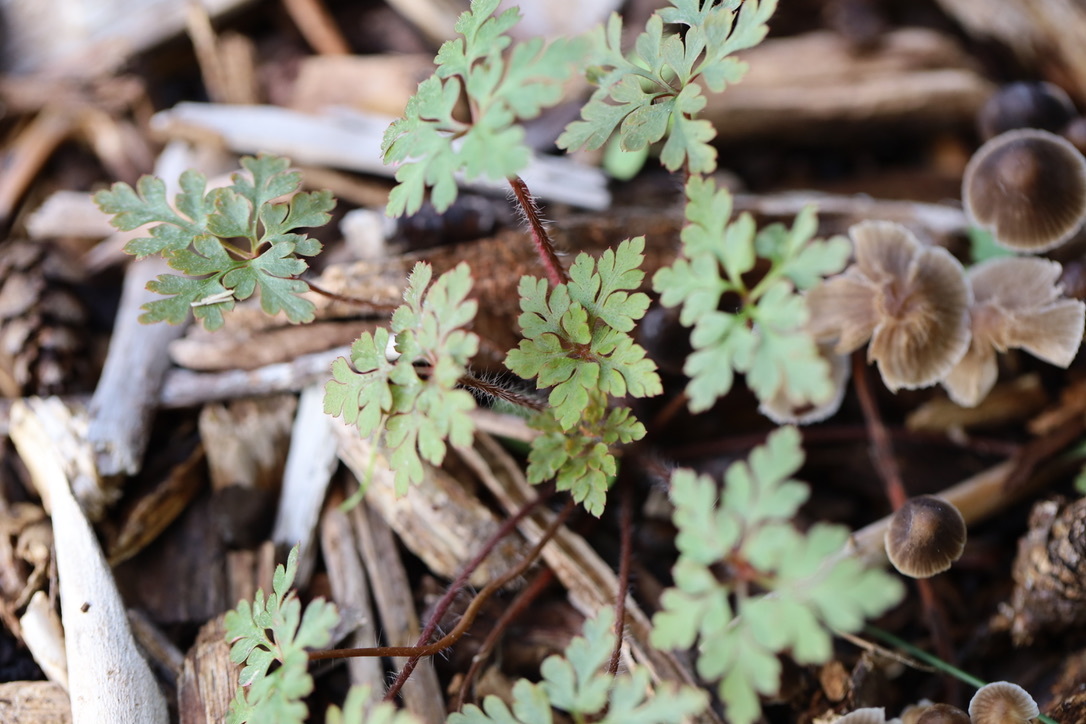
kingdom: Plantae
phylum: Tracheophyta
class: Magnoliopsida
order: Geraniales
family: Geraniaceae
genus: Geranium
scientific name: Geranium robertianum
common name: Herb-robert
